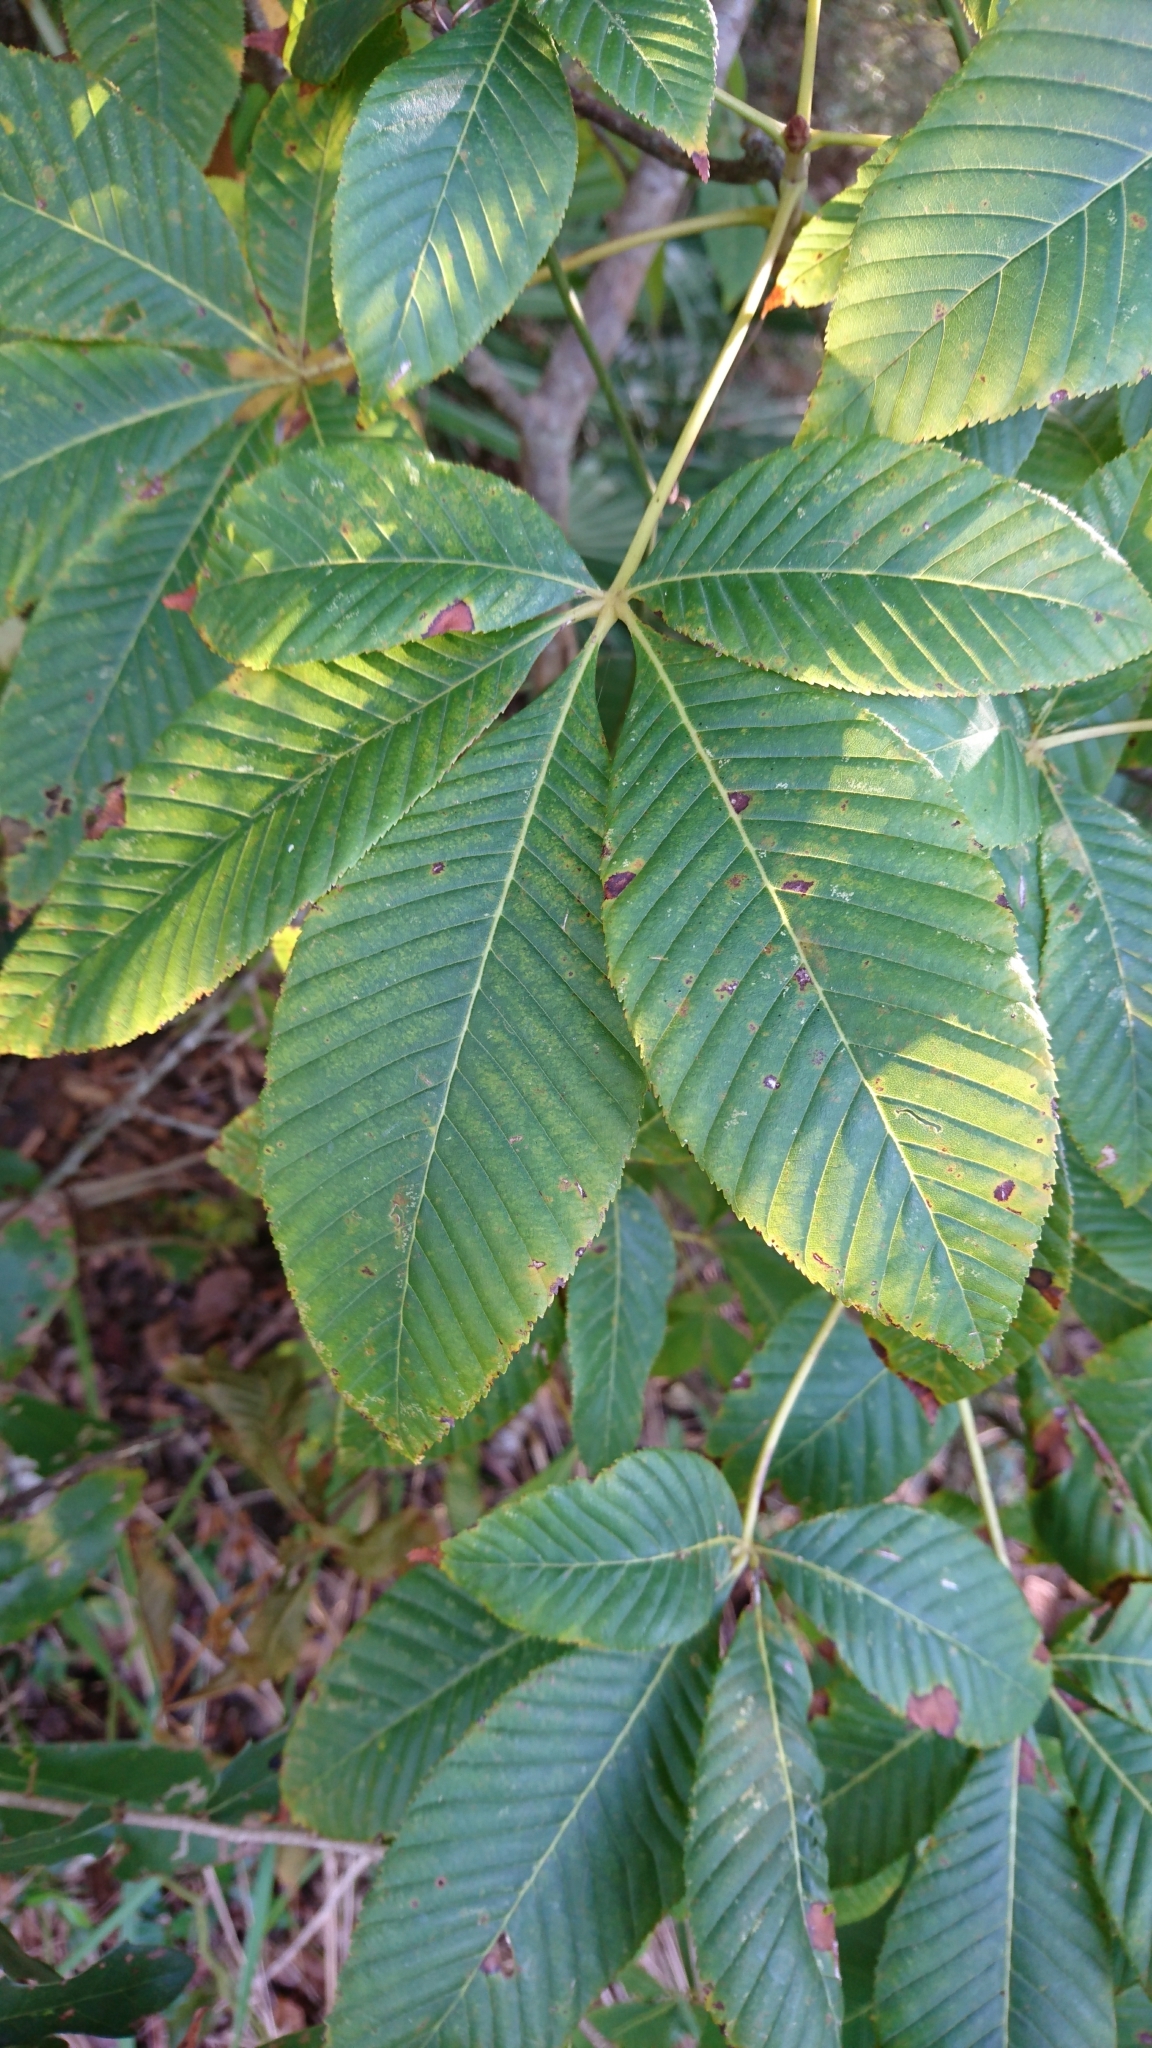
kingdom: Plantae
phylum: Tracheophyta
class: Magnoliopsida
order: Sapindales
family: Sapindaceae
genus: Aesculus
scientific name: Aesculus pavia
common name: Red buckeye
